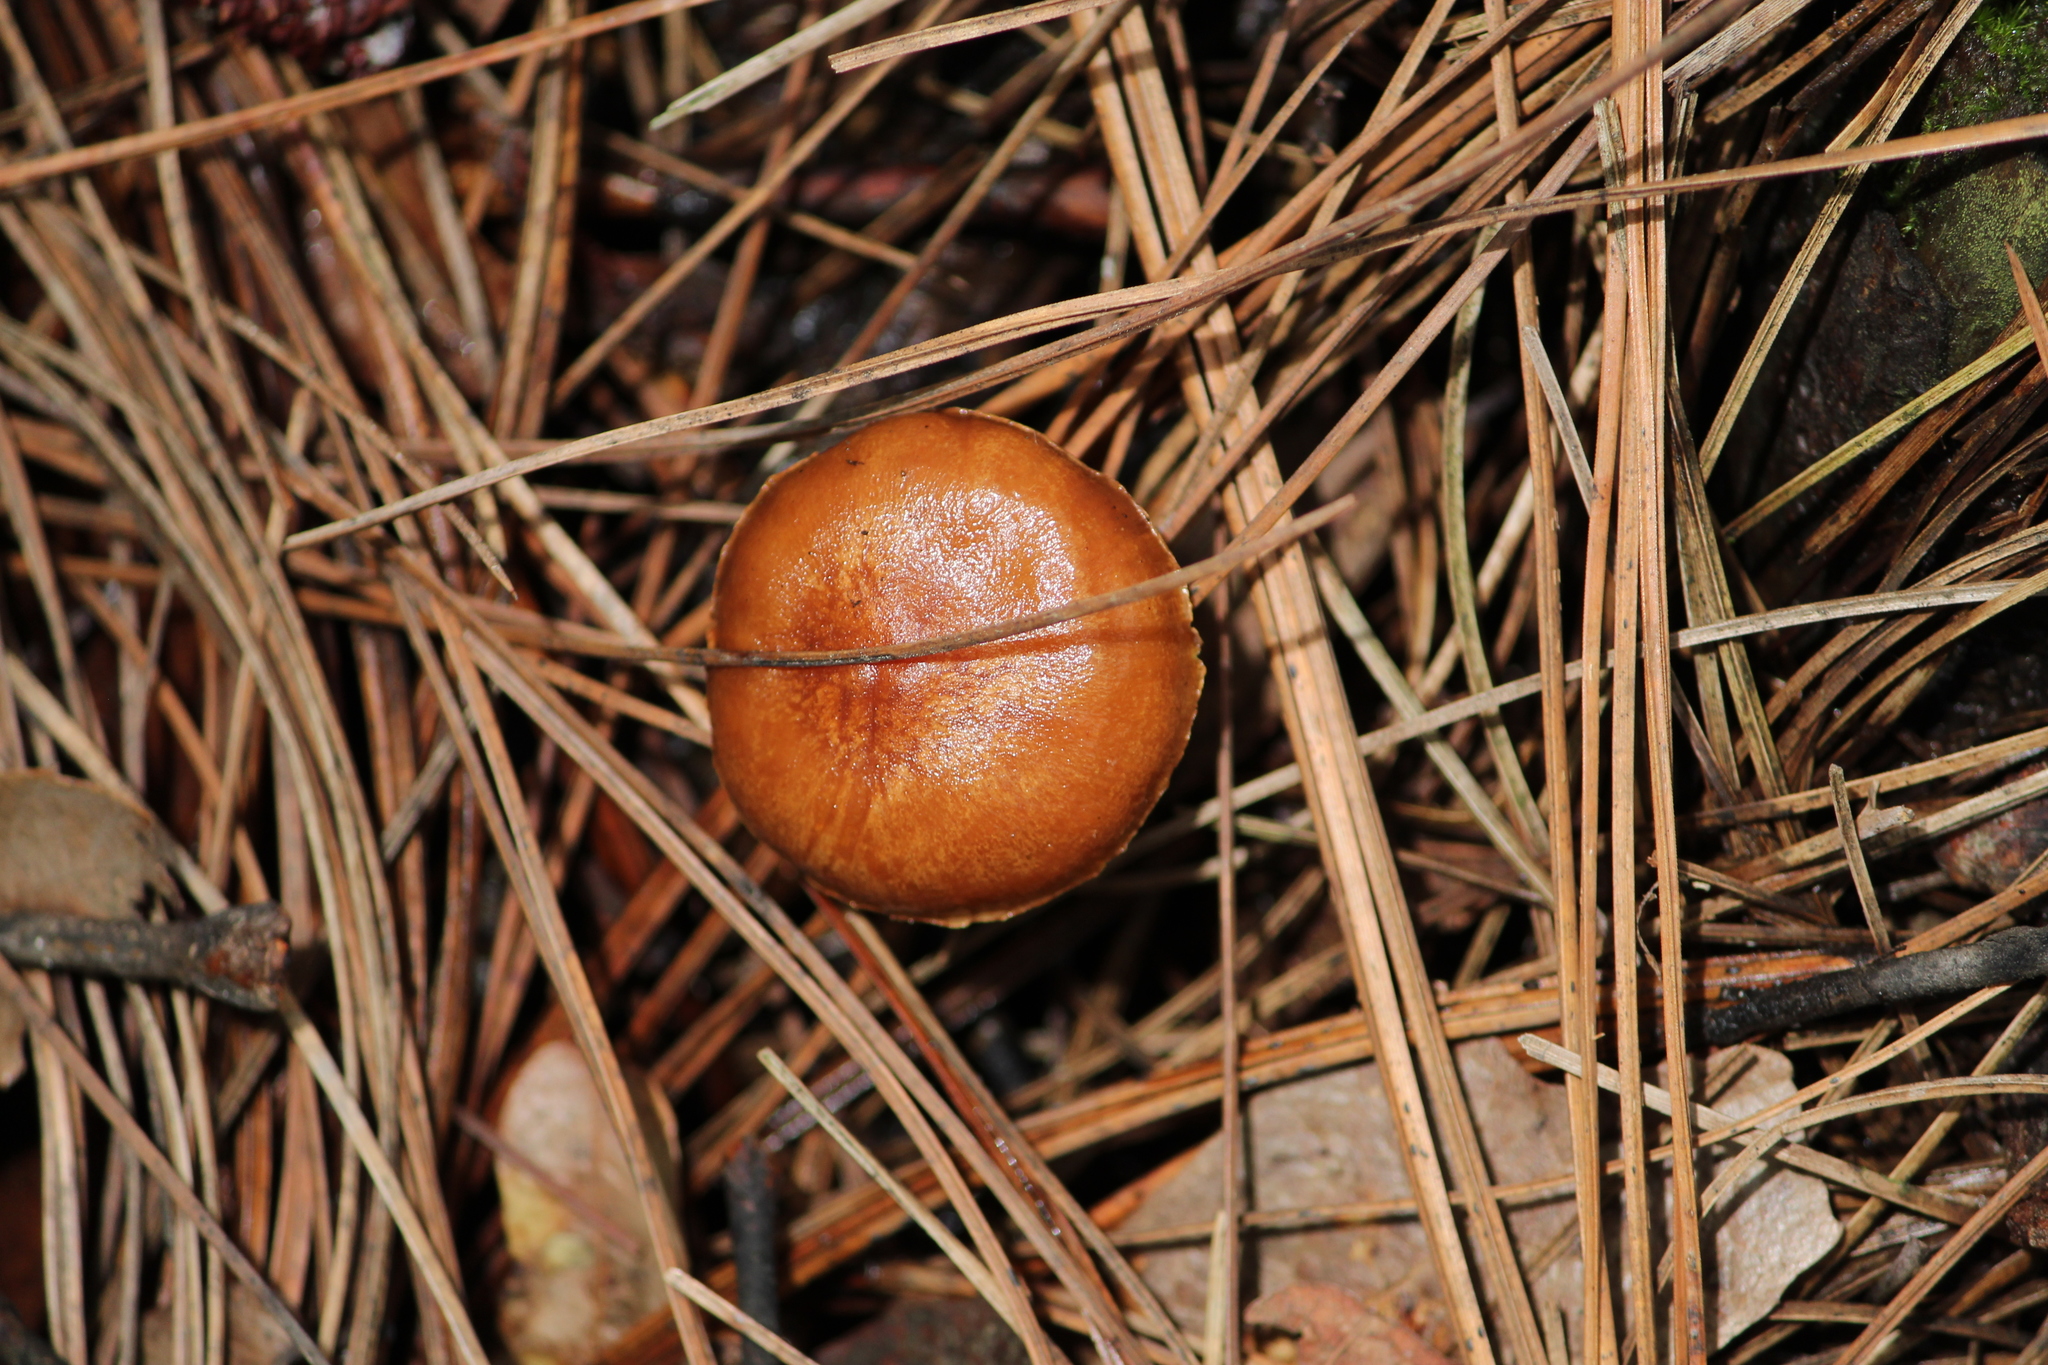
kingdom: Fungi
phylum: Basidiomycota
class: Agaricomycetes
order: Boletales
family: Boletaceae
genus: Chalciporus
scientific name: Chalciporus piperatus
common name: Peppery bolete
